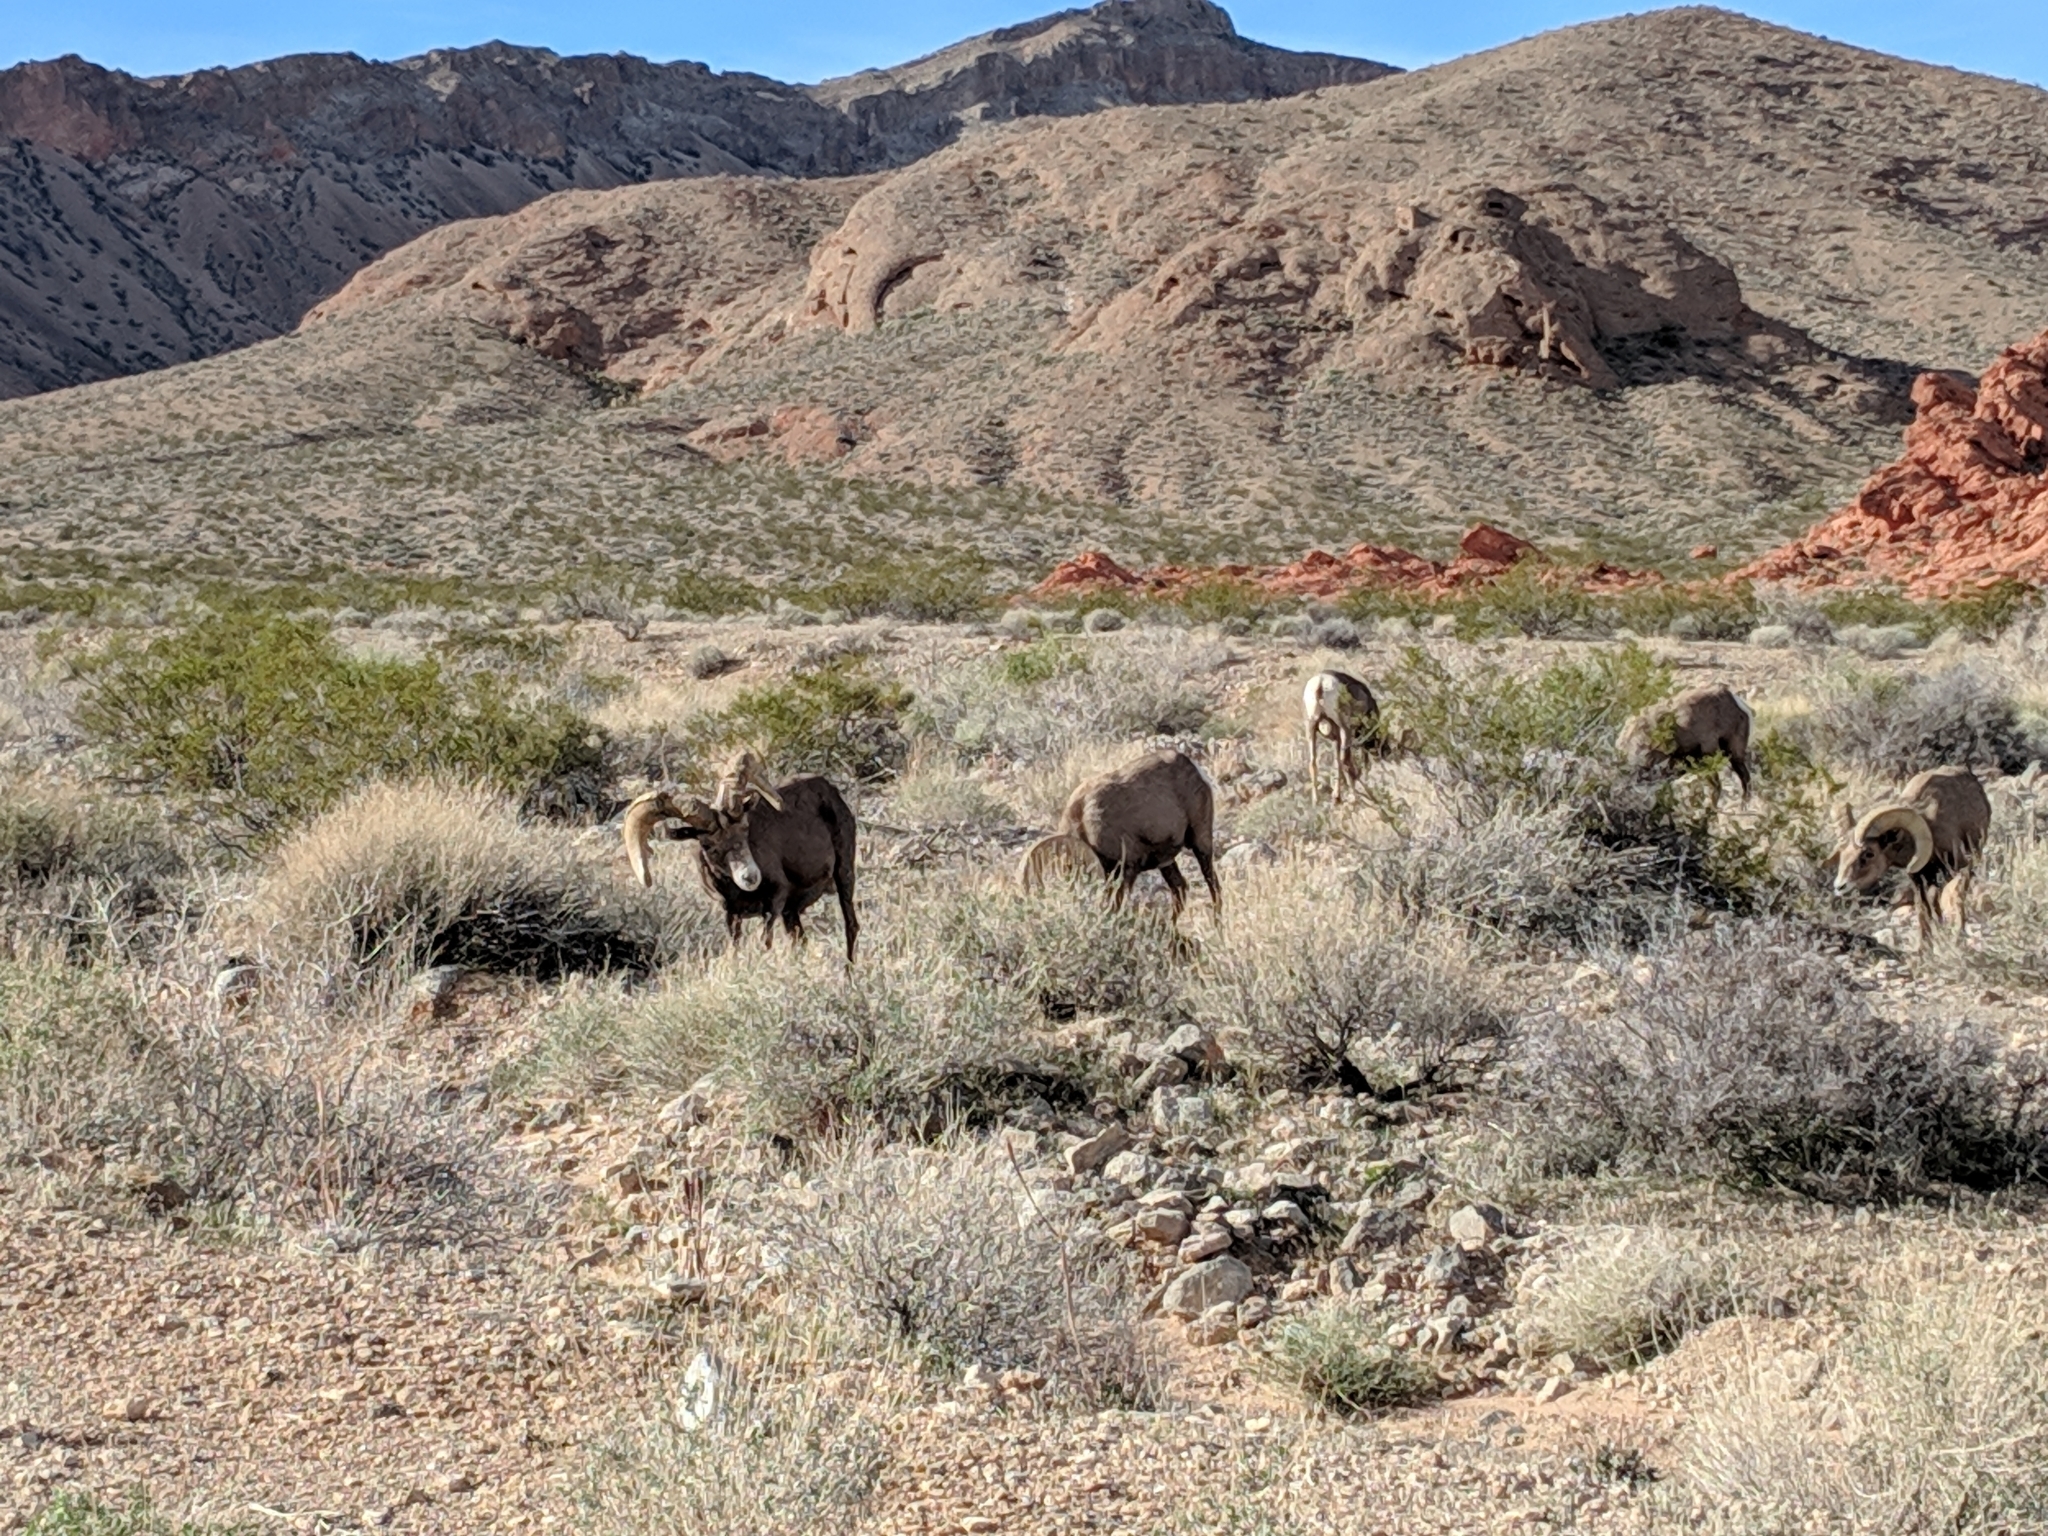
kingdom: Animalia
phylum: Chordata
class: Mammalia
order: Artiodactyla
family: Bovidae
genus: Ovis
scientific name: Ovis canadensis
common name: Bighorn sheep
